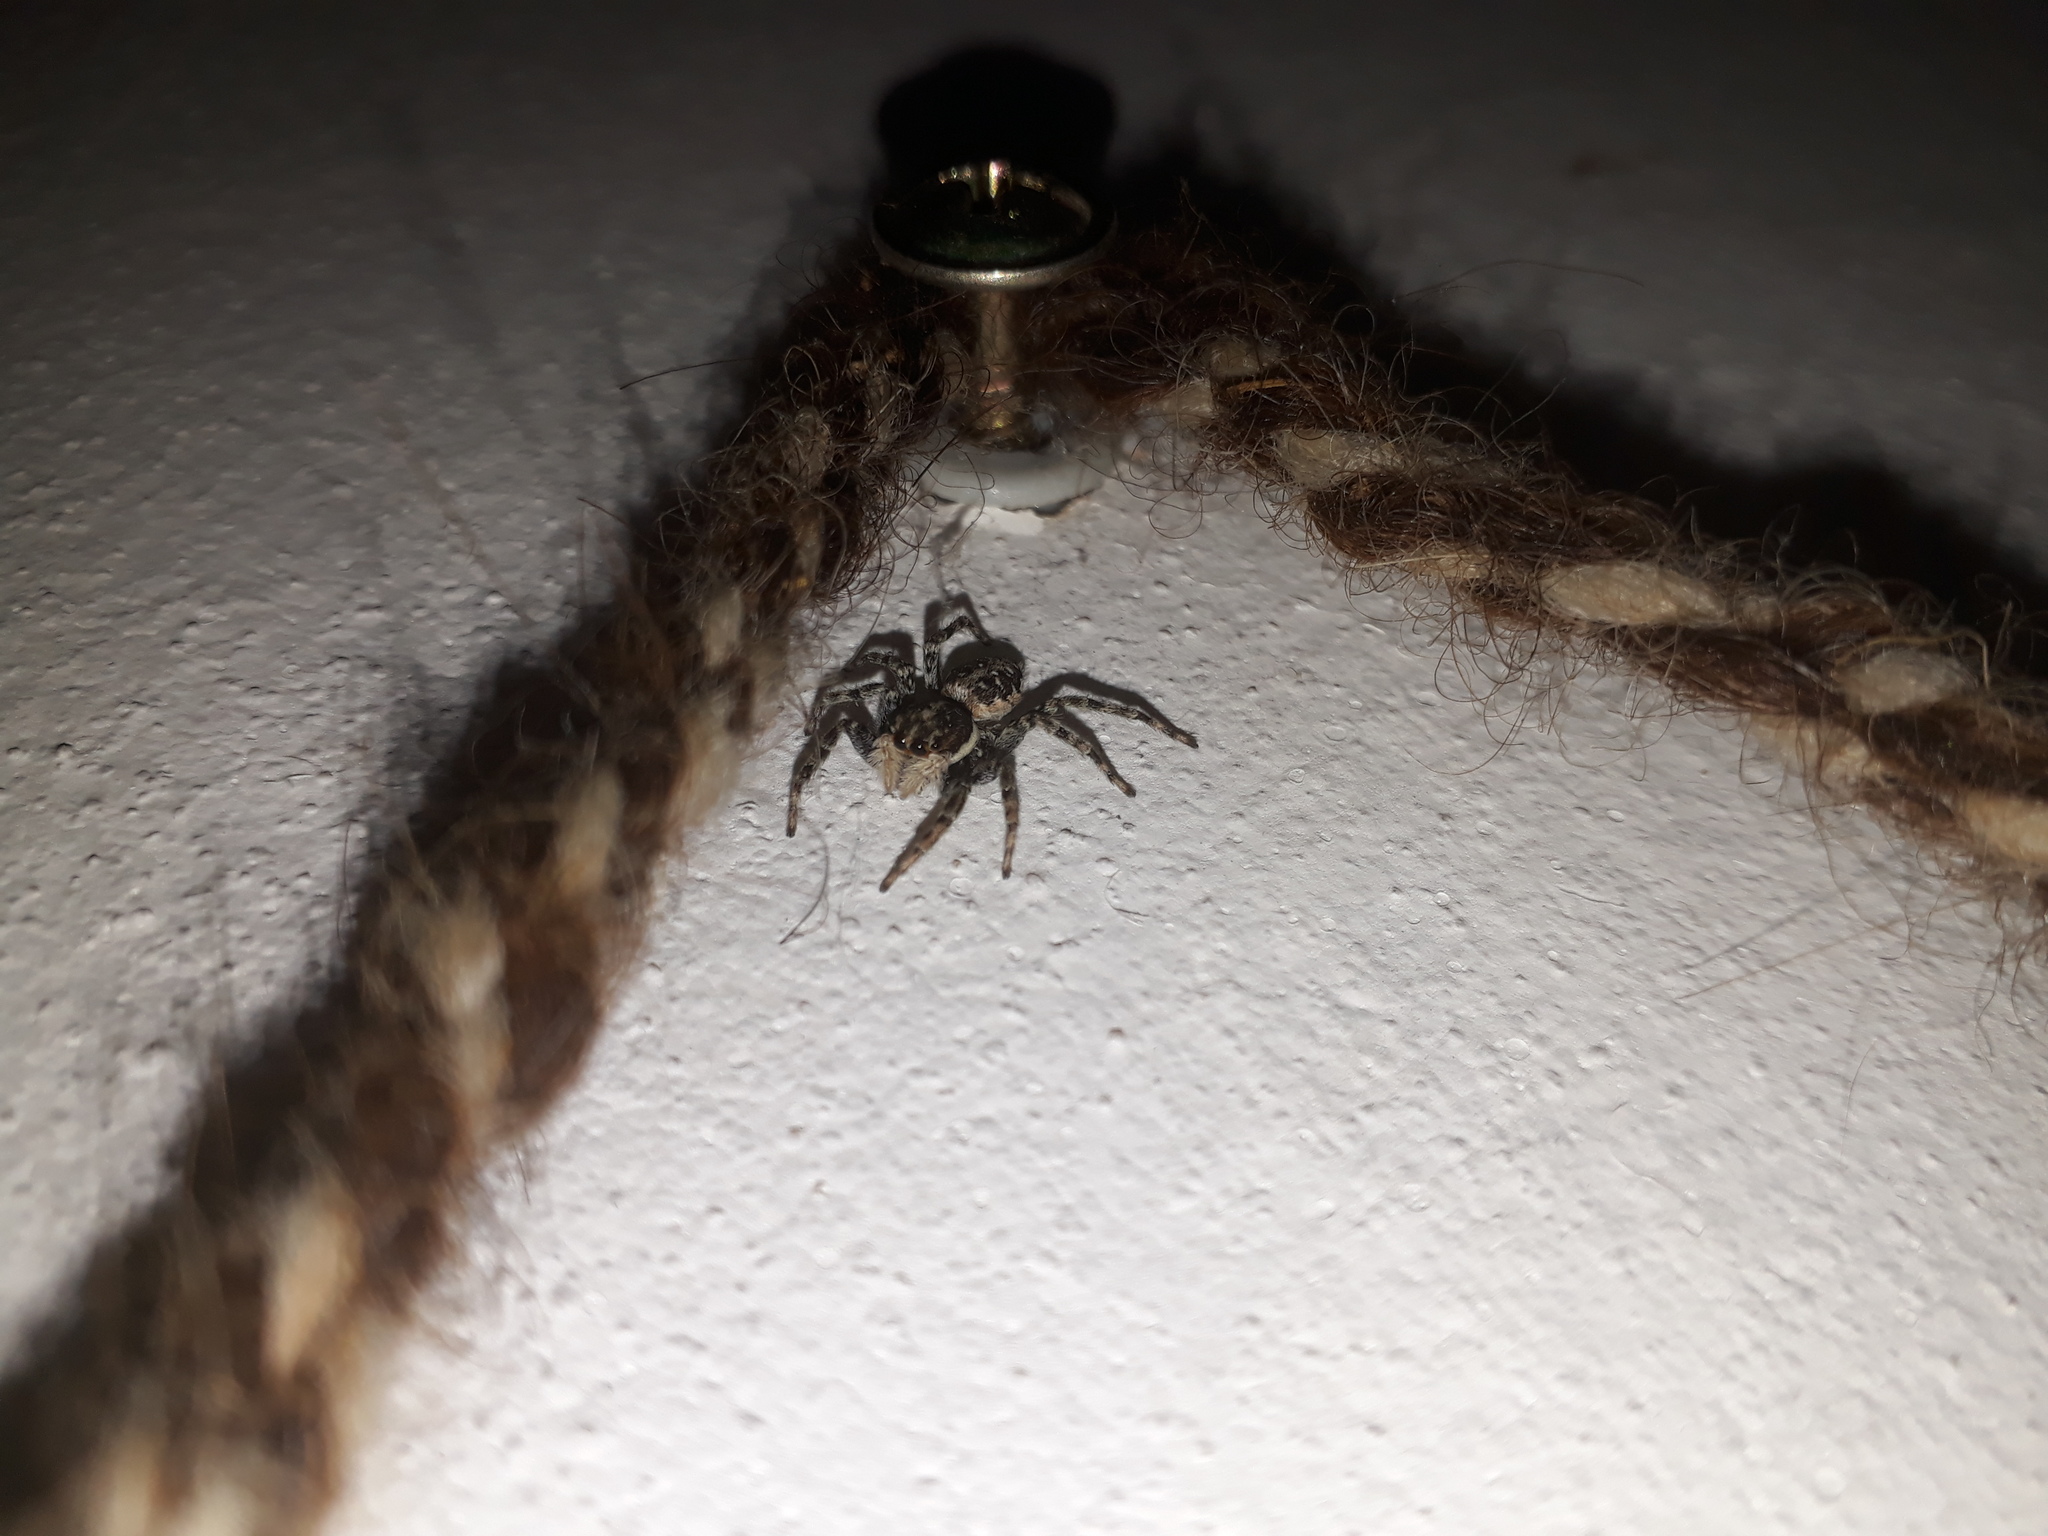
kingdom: Animalia
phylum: Arthropoda
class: Arachnida
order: Araneae
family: Salticidae
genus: Menemerus
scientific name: Menemerus semilimbatus
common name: Jumping spider
